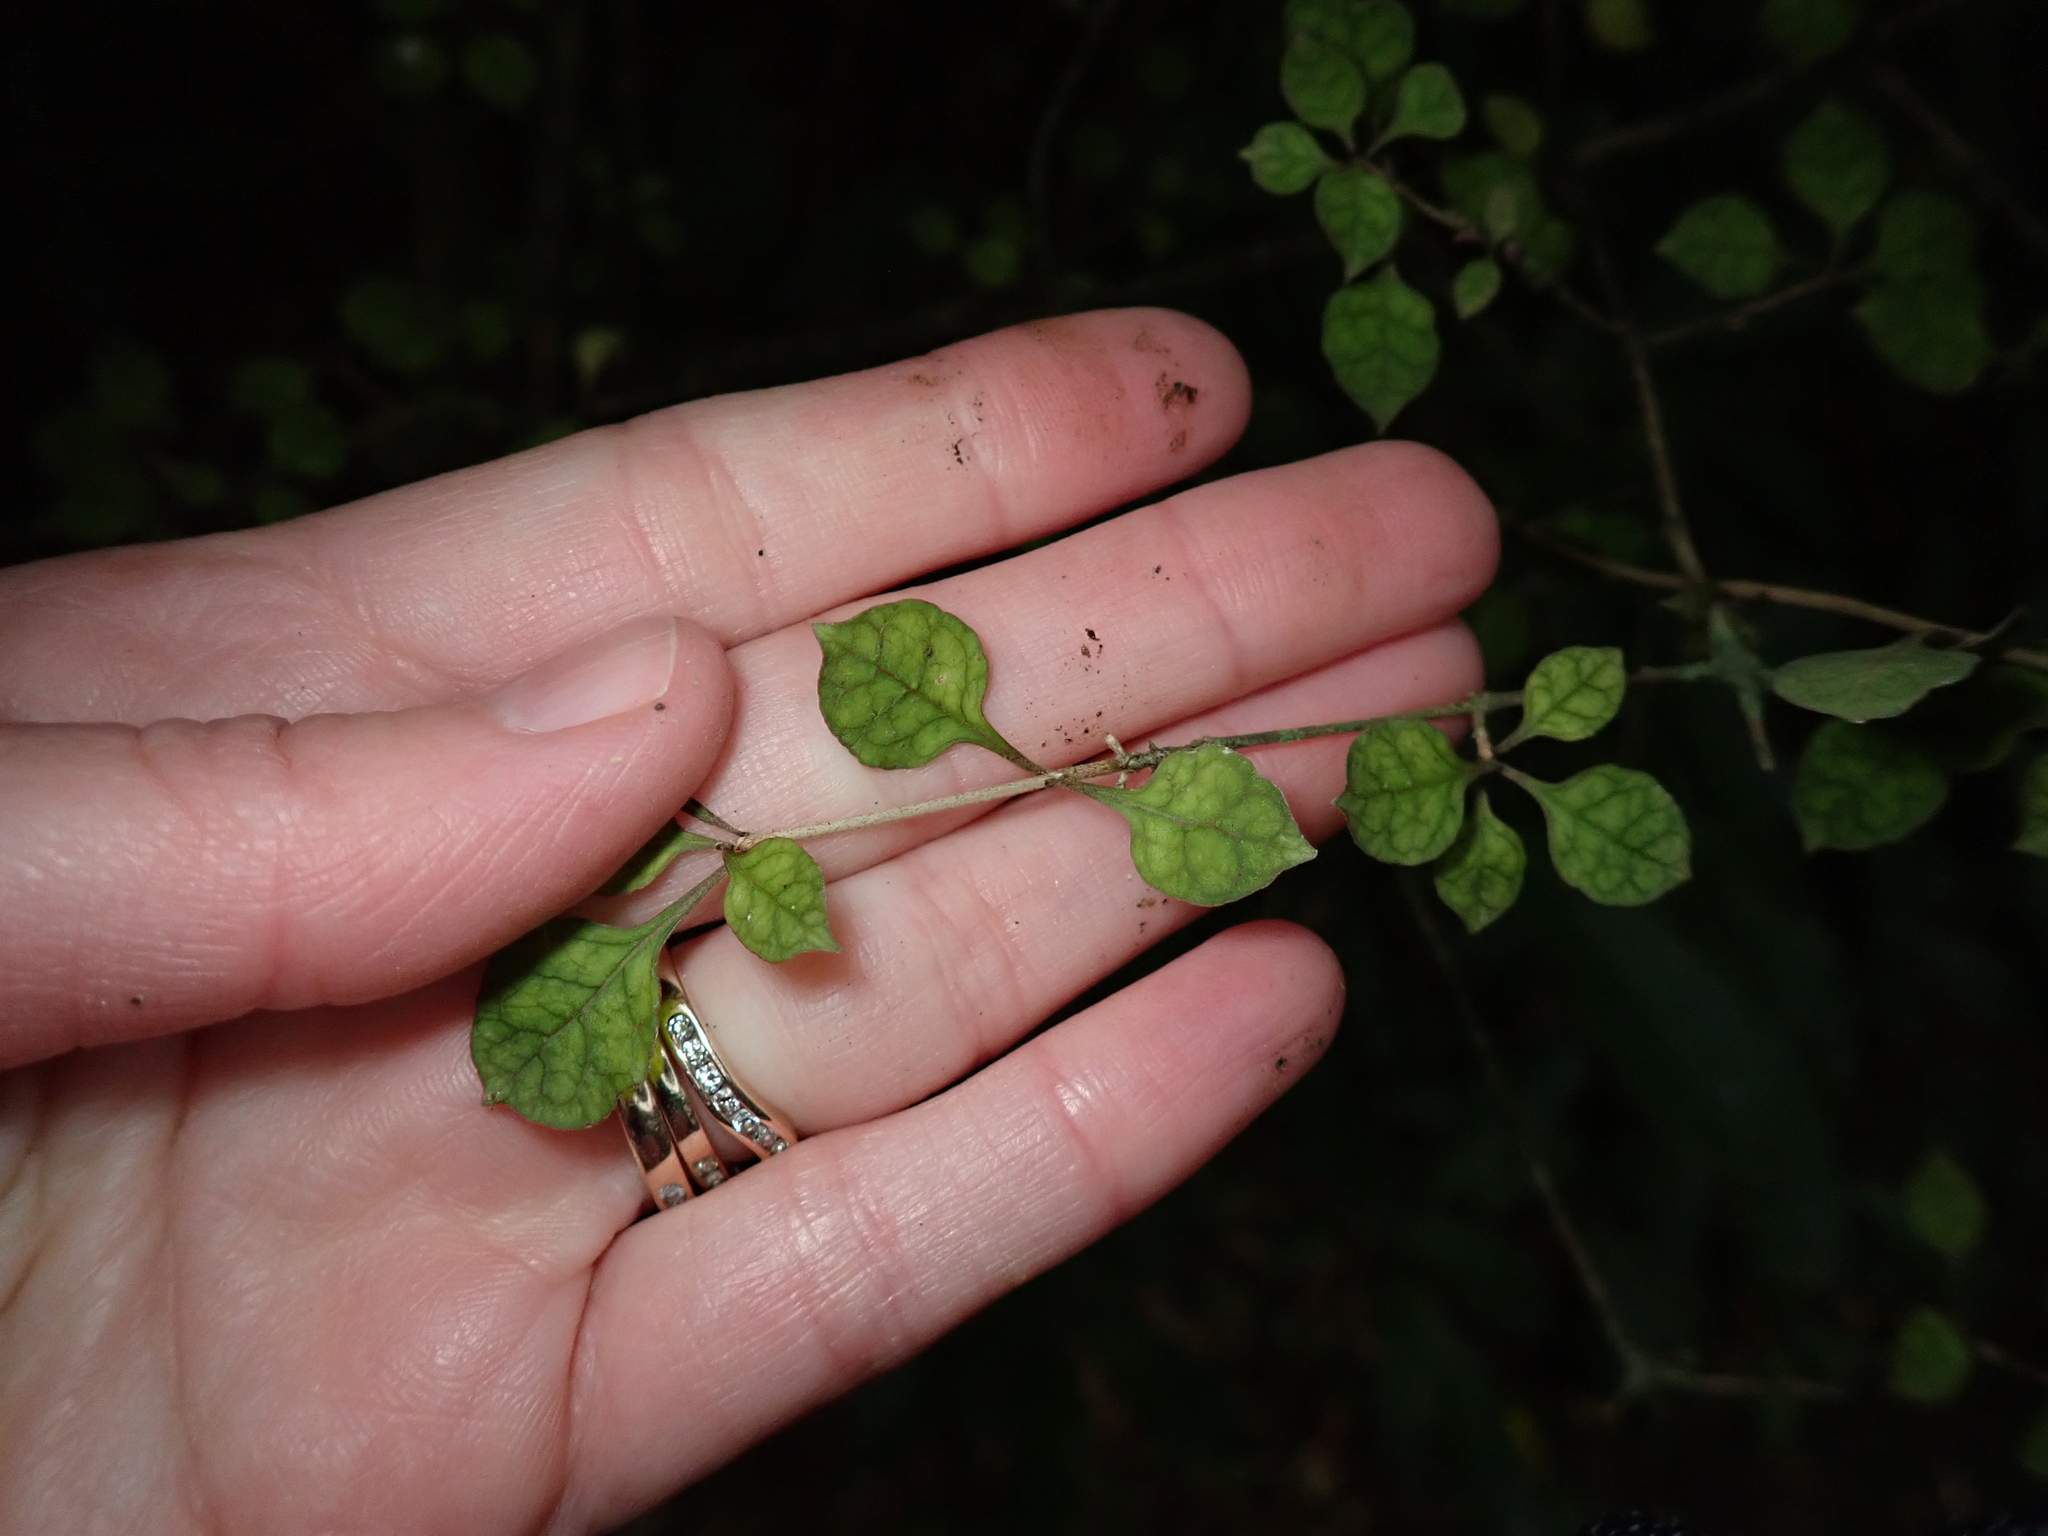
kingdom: Plantae
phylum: Tracheophyta
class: Magnoliopsida
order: Gentianales
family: Rubiaceae
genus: Coprosma
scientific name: Coprosma areolata
